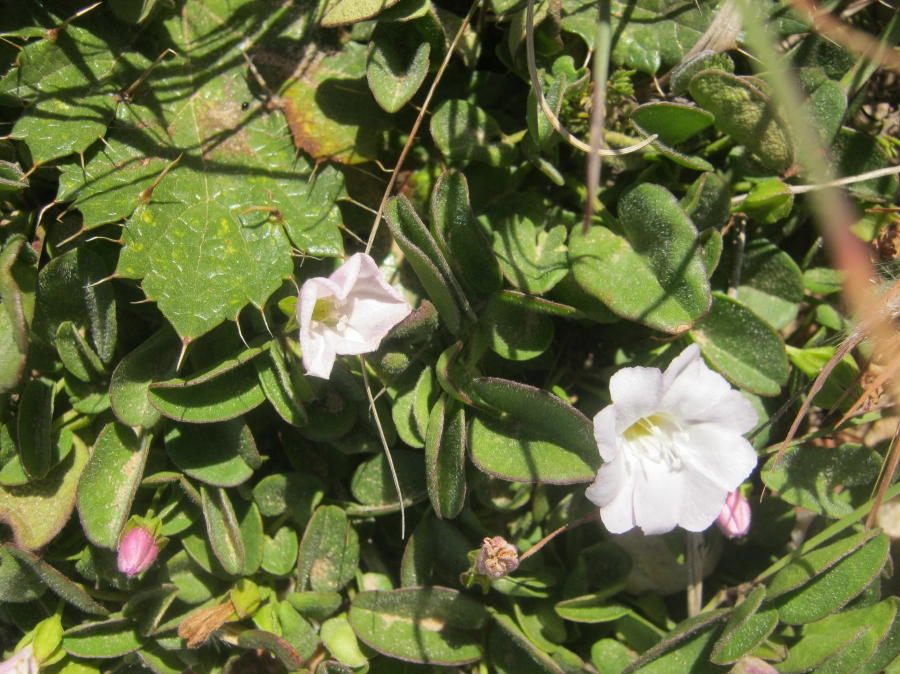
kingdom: Plantae
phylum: Tracheophyta
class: Magnoliopsida
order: Solanales
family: Convolvulaceae
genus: Falkia
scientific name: Falkia repens
